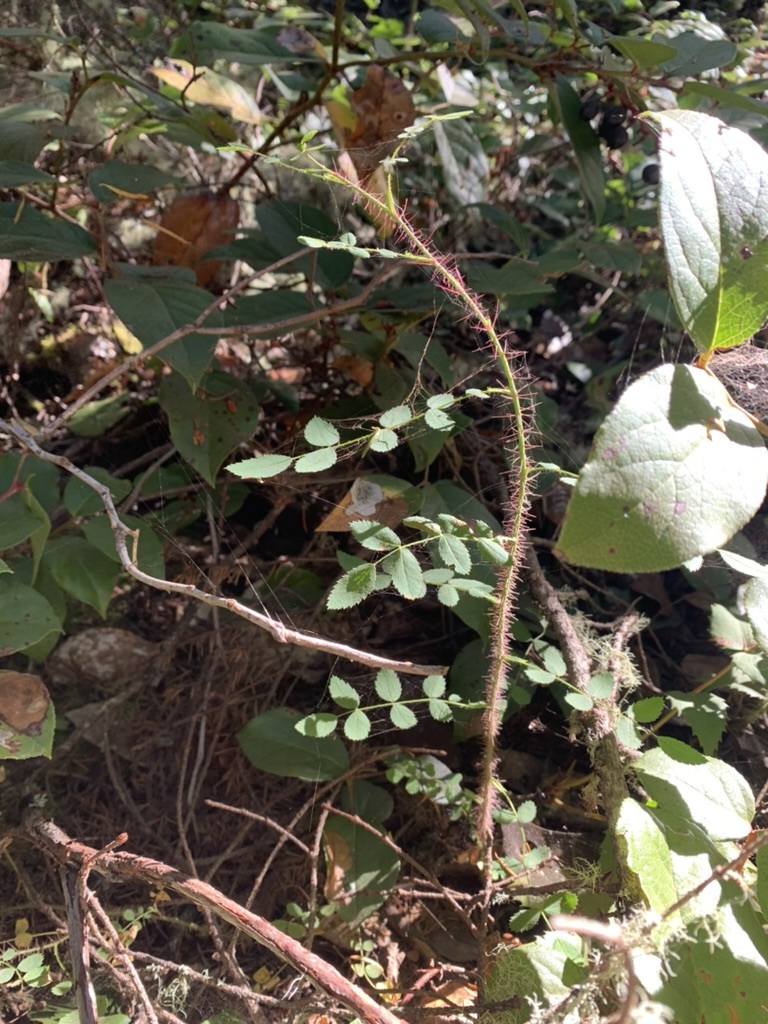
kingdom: Plantae
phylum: Tracheophyta
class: Magnoliopsida
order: Rosales
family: Rosaceae
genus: Rosa
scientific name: Rosa gymnocarpa
